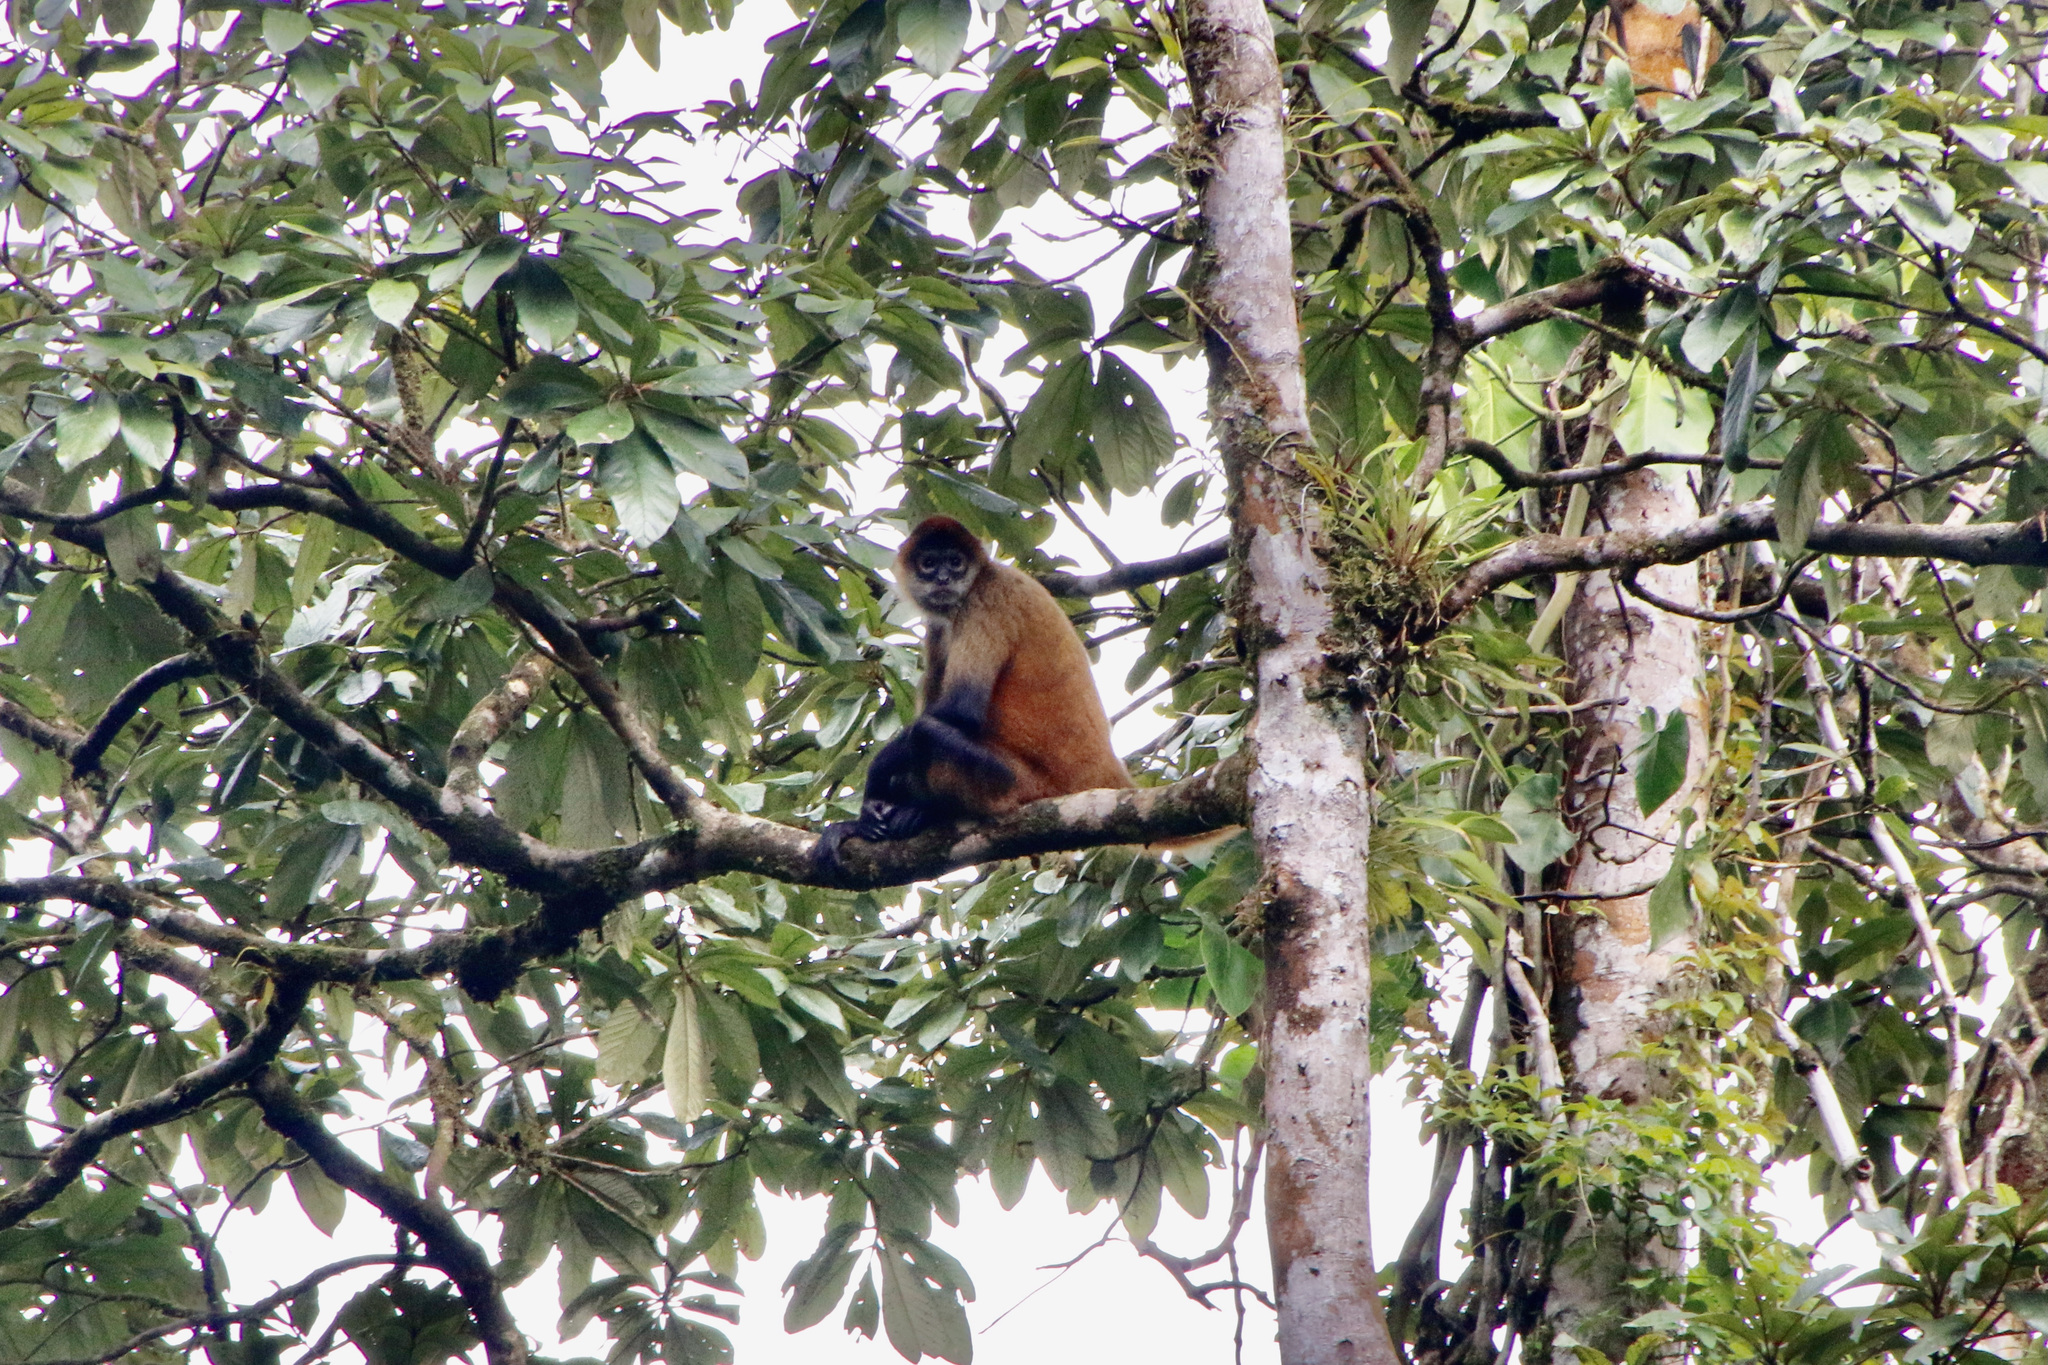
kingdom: Animalia
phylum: Chordata
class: Mammalia
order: Primates
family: Atelidae
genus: Ateles
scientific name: Ateles geoffroyi
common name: Black-handed spider monkey
